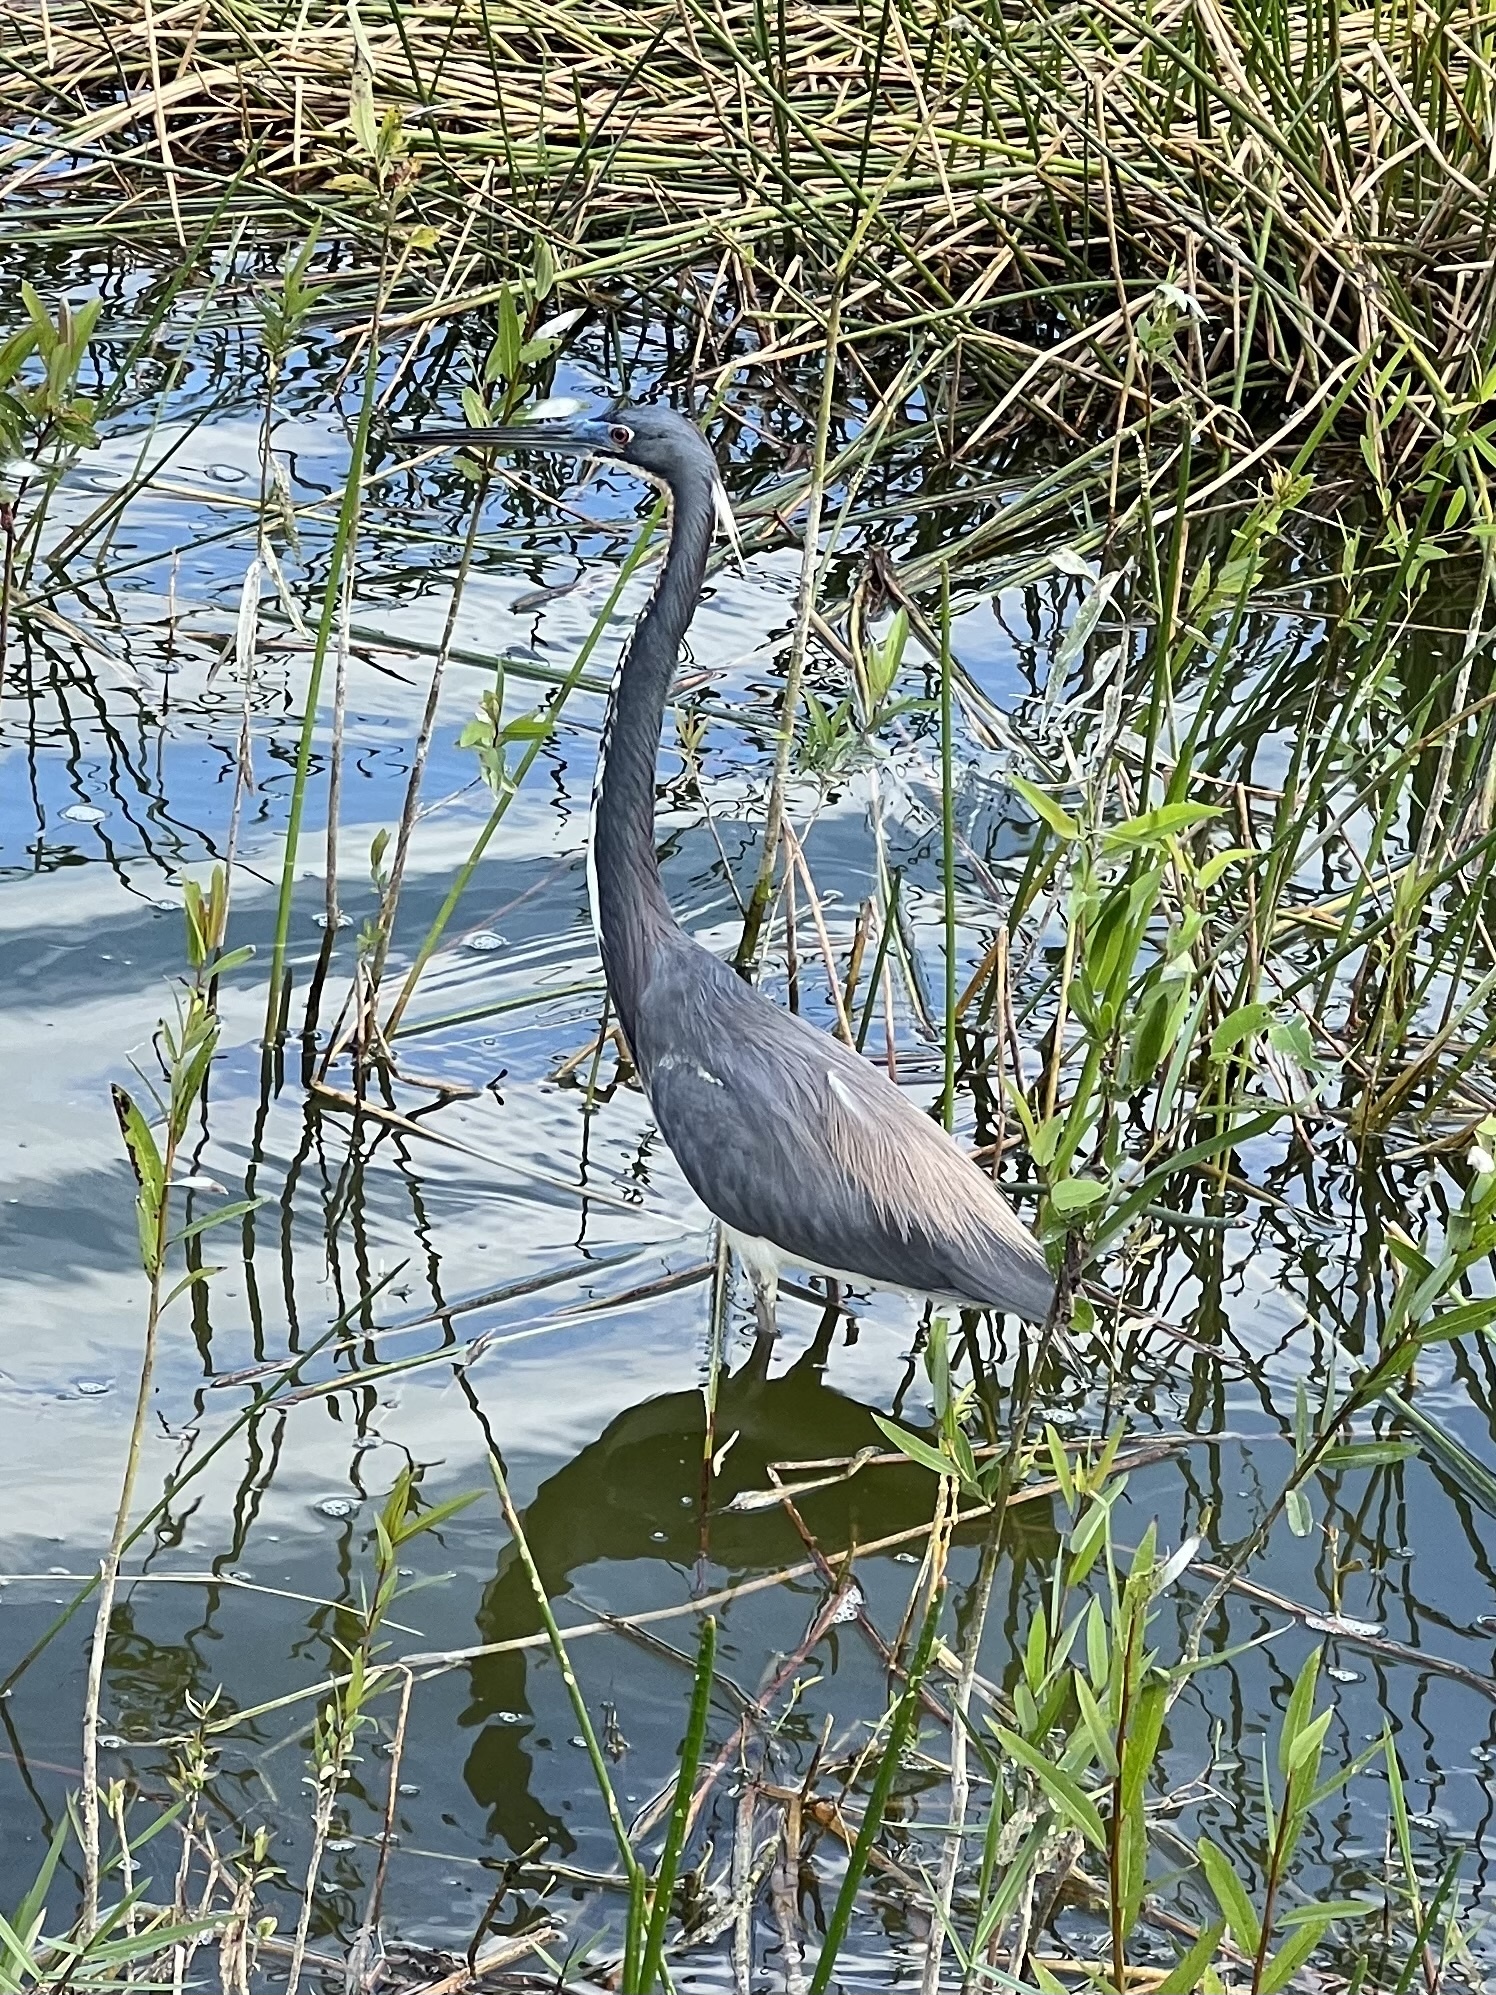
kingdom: Animalia
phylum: Chordata
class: Aves
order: Pelecaniformes
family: Ardeidae
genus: Egretta
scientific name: Egretta tricolor
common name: Tricolored heron
